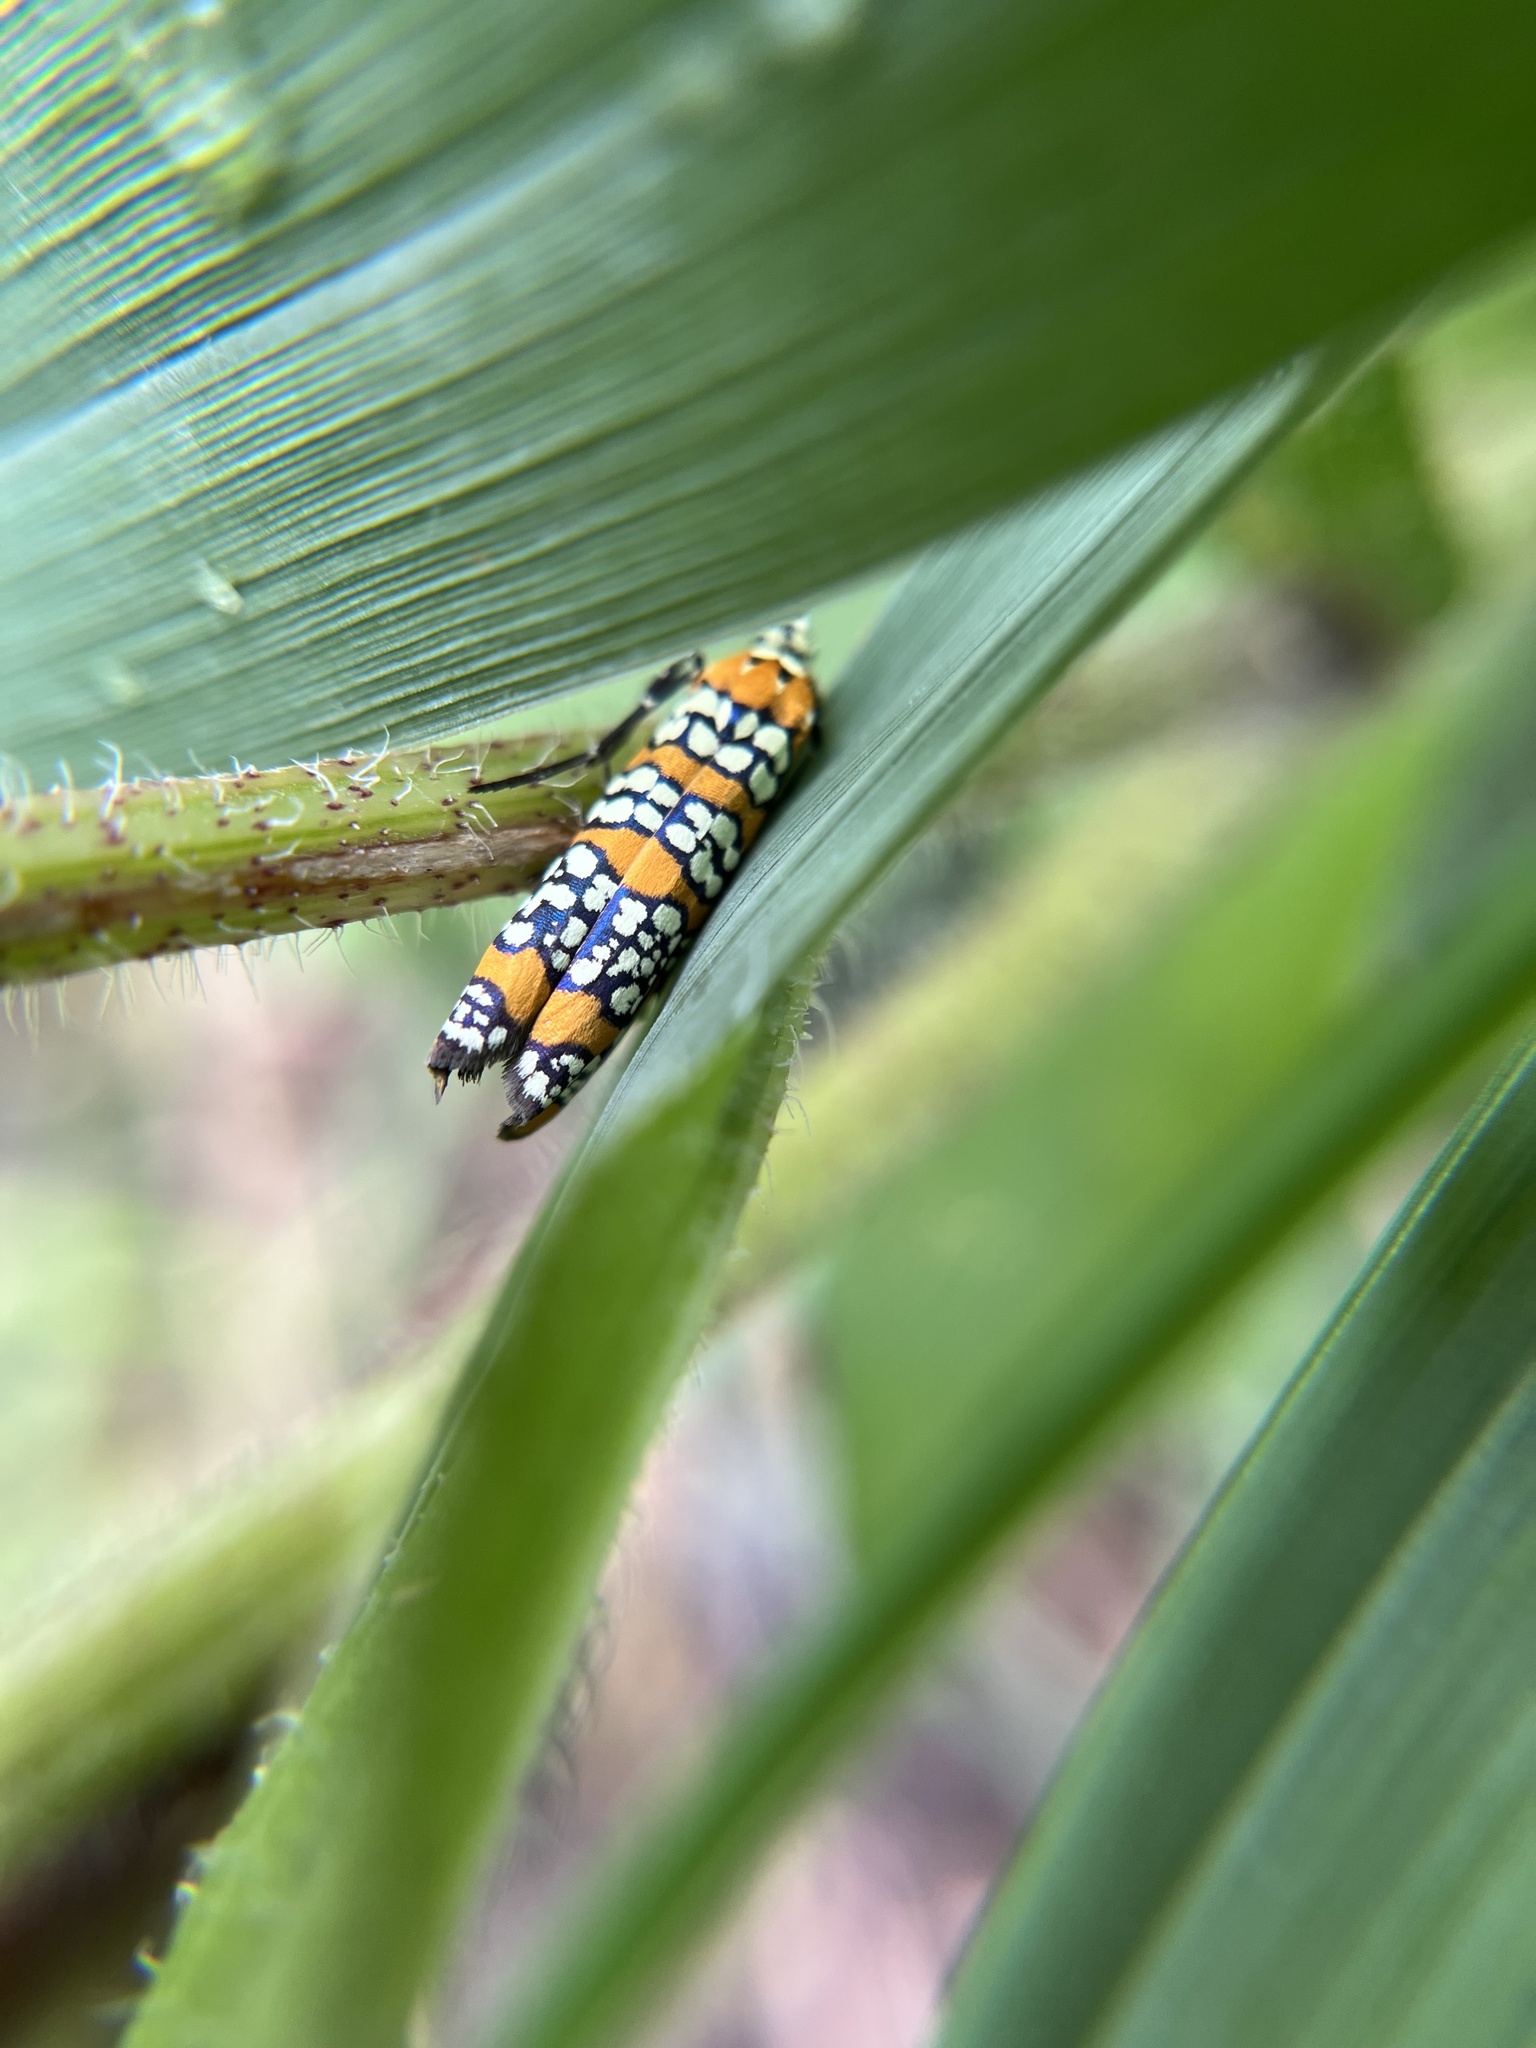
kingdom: Animalia
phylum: Arthropoda
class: Insecta
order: Lepidoptera
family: Attevidae
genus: Atteva
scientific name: Atteva punctella
